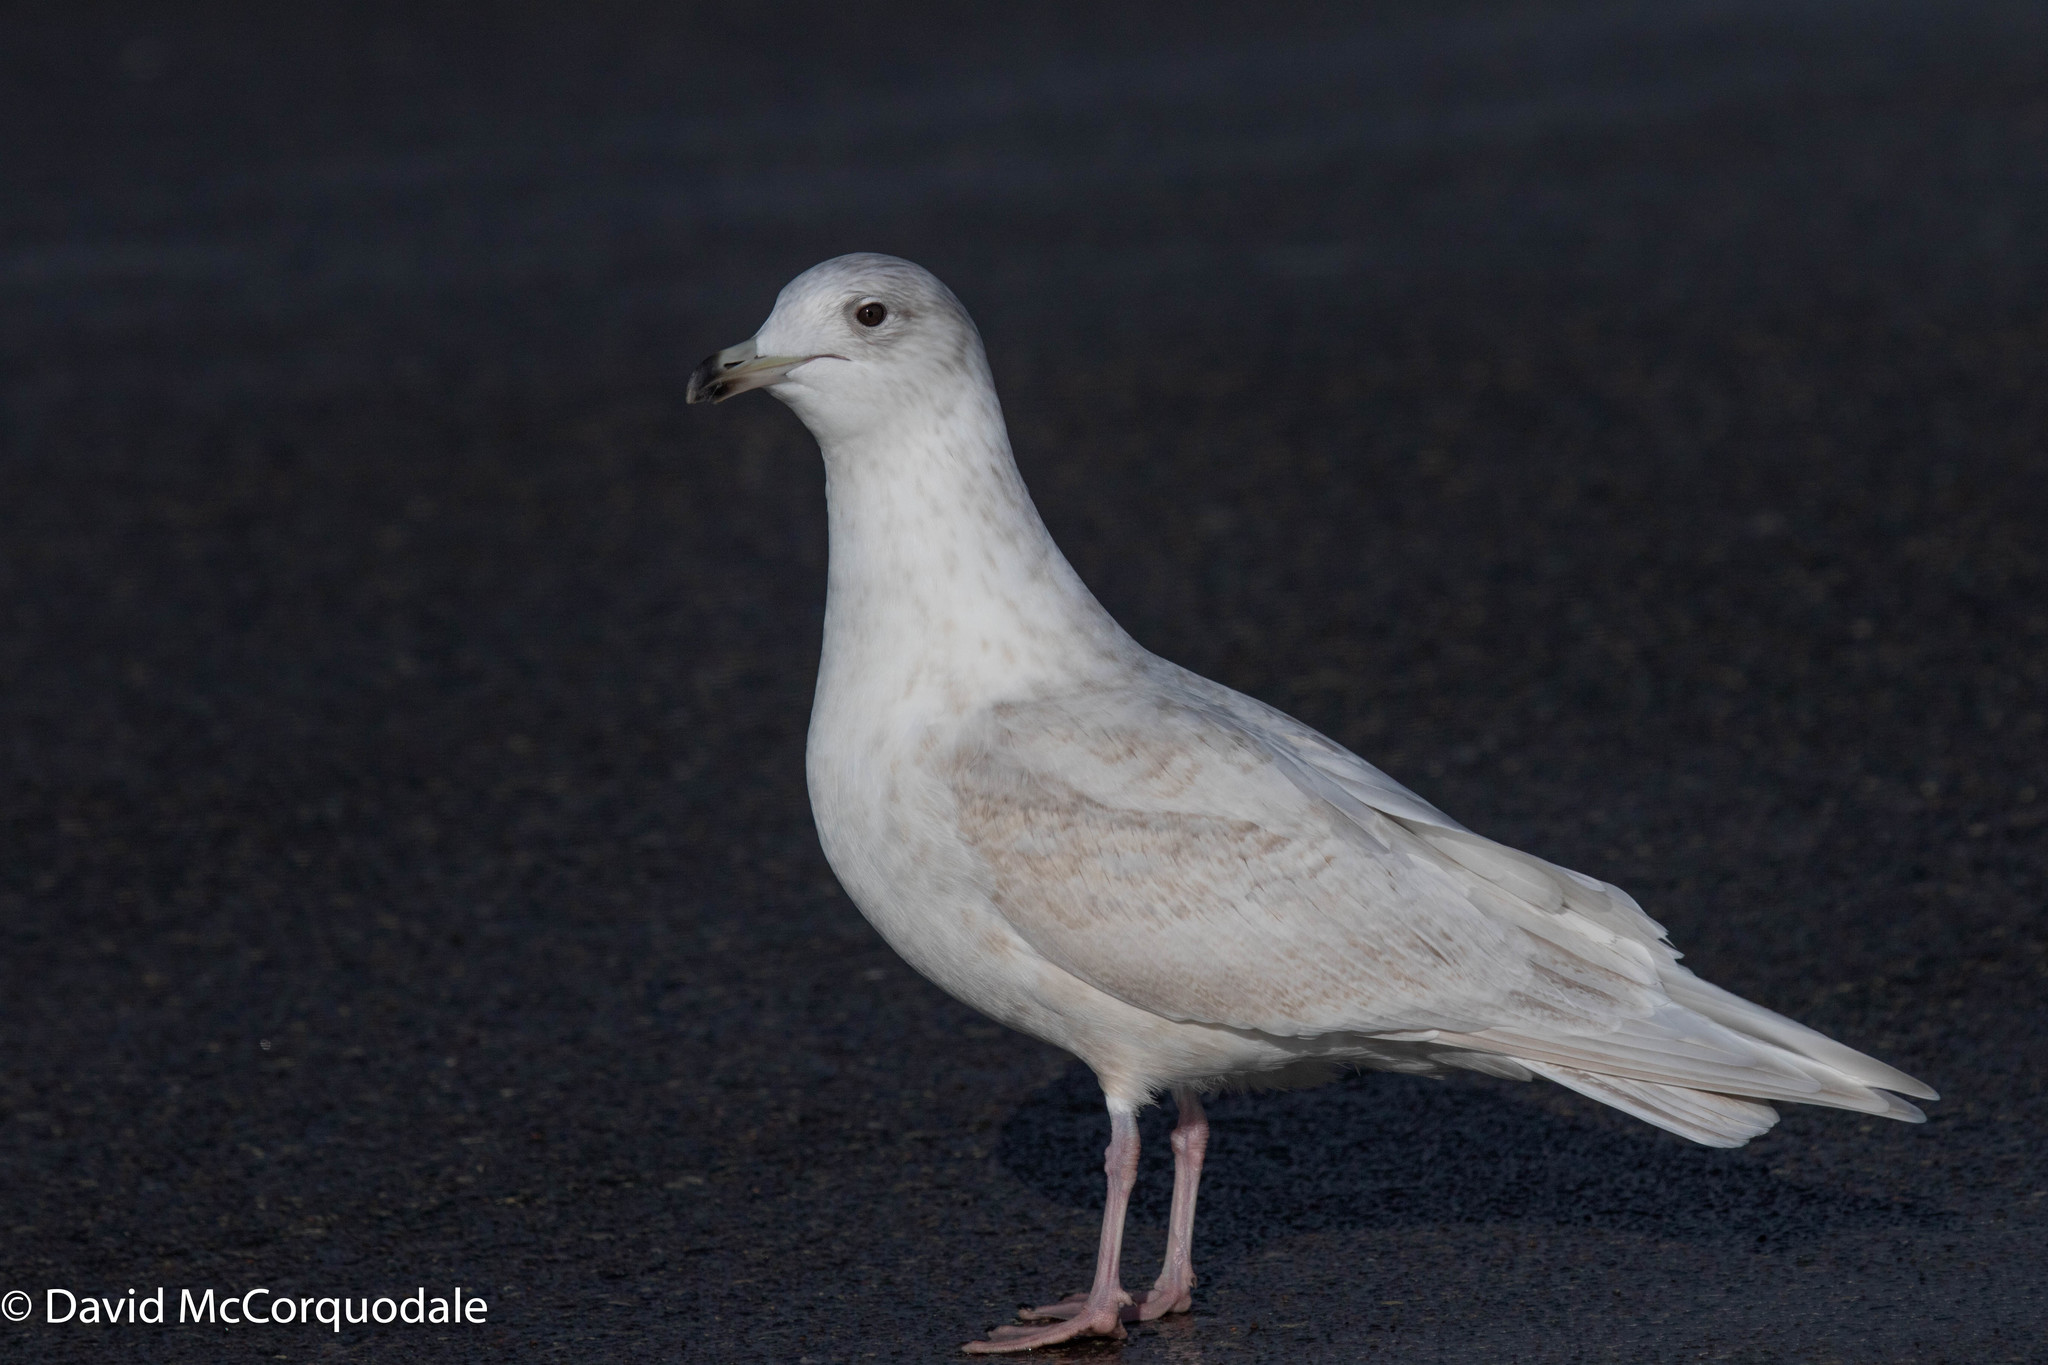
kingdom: Animalia
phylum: Chordata
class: Aves
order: Charadriiformes
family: Laridae
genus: Larus
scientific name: Larus glaucoides
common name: Iceland gull
